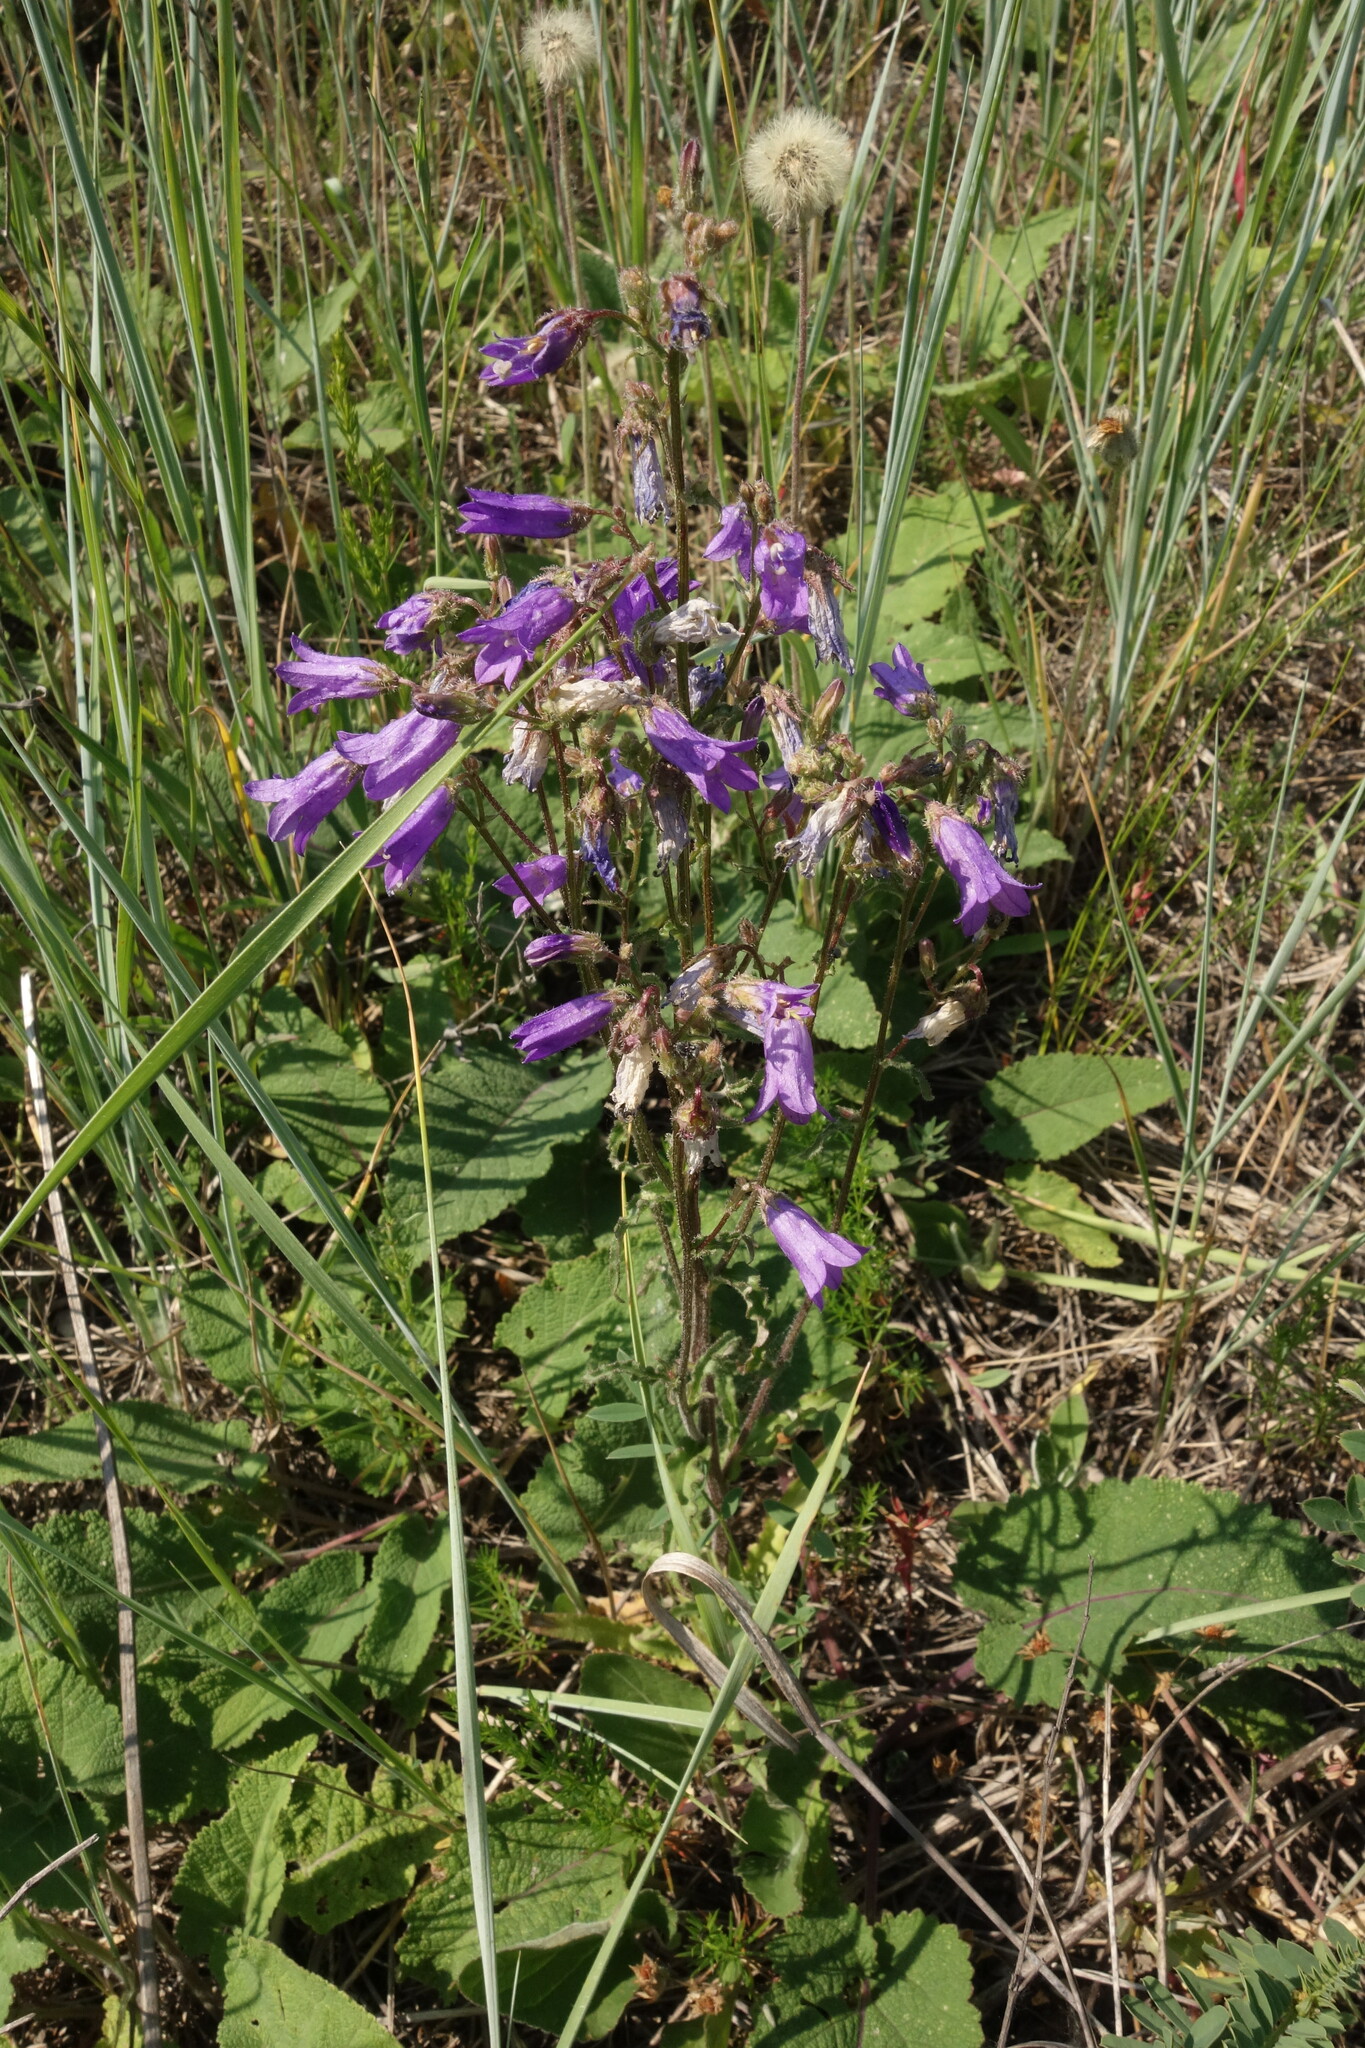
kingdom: Plantae
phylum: Tracheophyta
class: Magnoliopsida
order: Asterales
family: Campanulaceae
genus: Campanula
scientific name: Campanula sibirica
